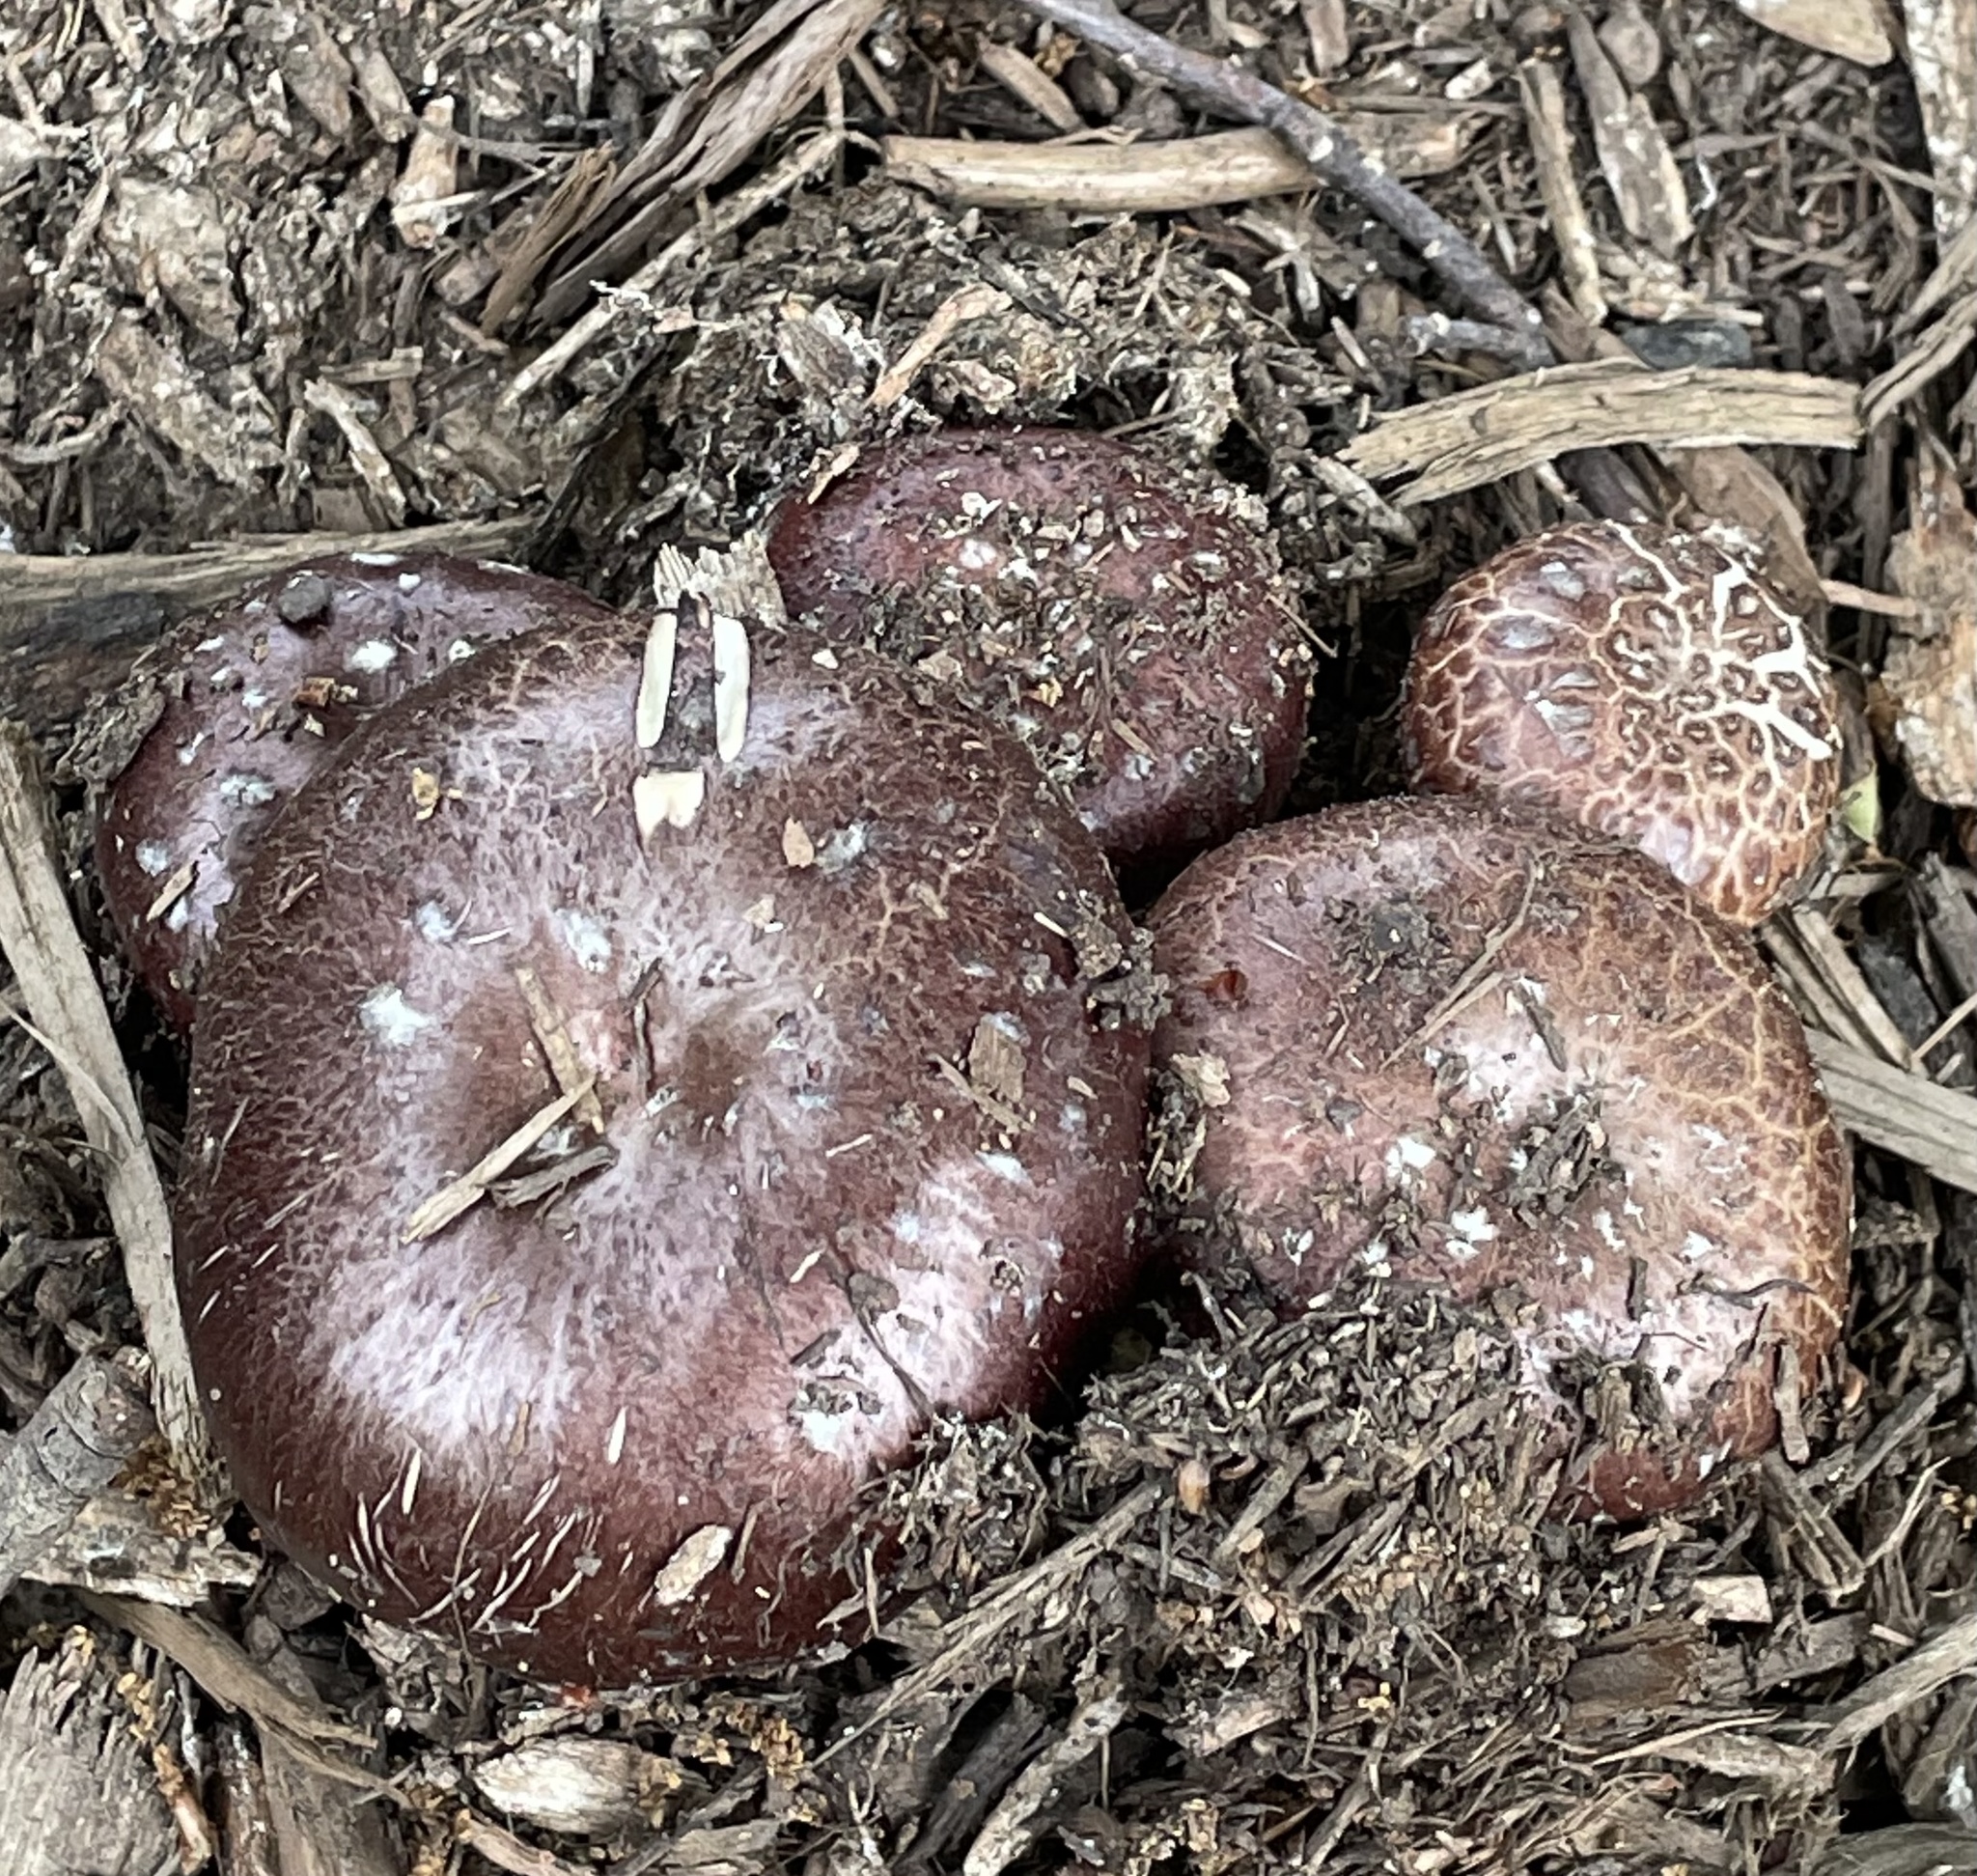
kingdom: Fungi
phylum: Basidiomycota
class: Agaricomycetes
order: Agaricales
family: Strophariaceae
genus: Stropharia
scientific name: Stropharia rugosoannulata
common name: Wine roundhead
